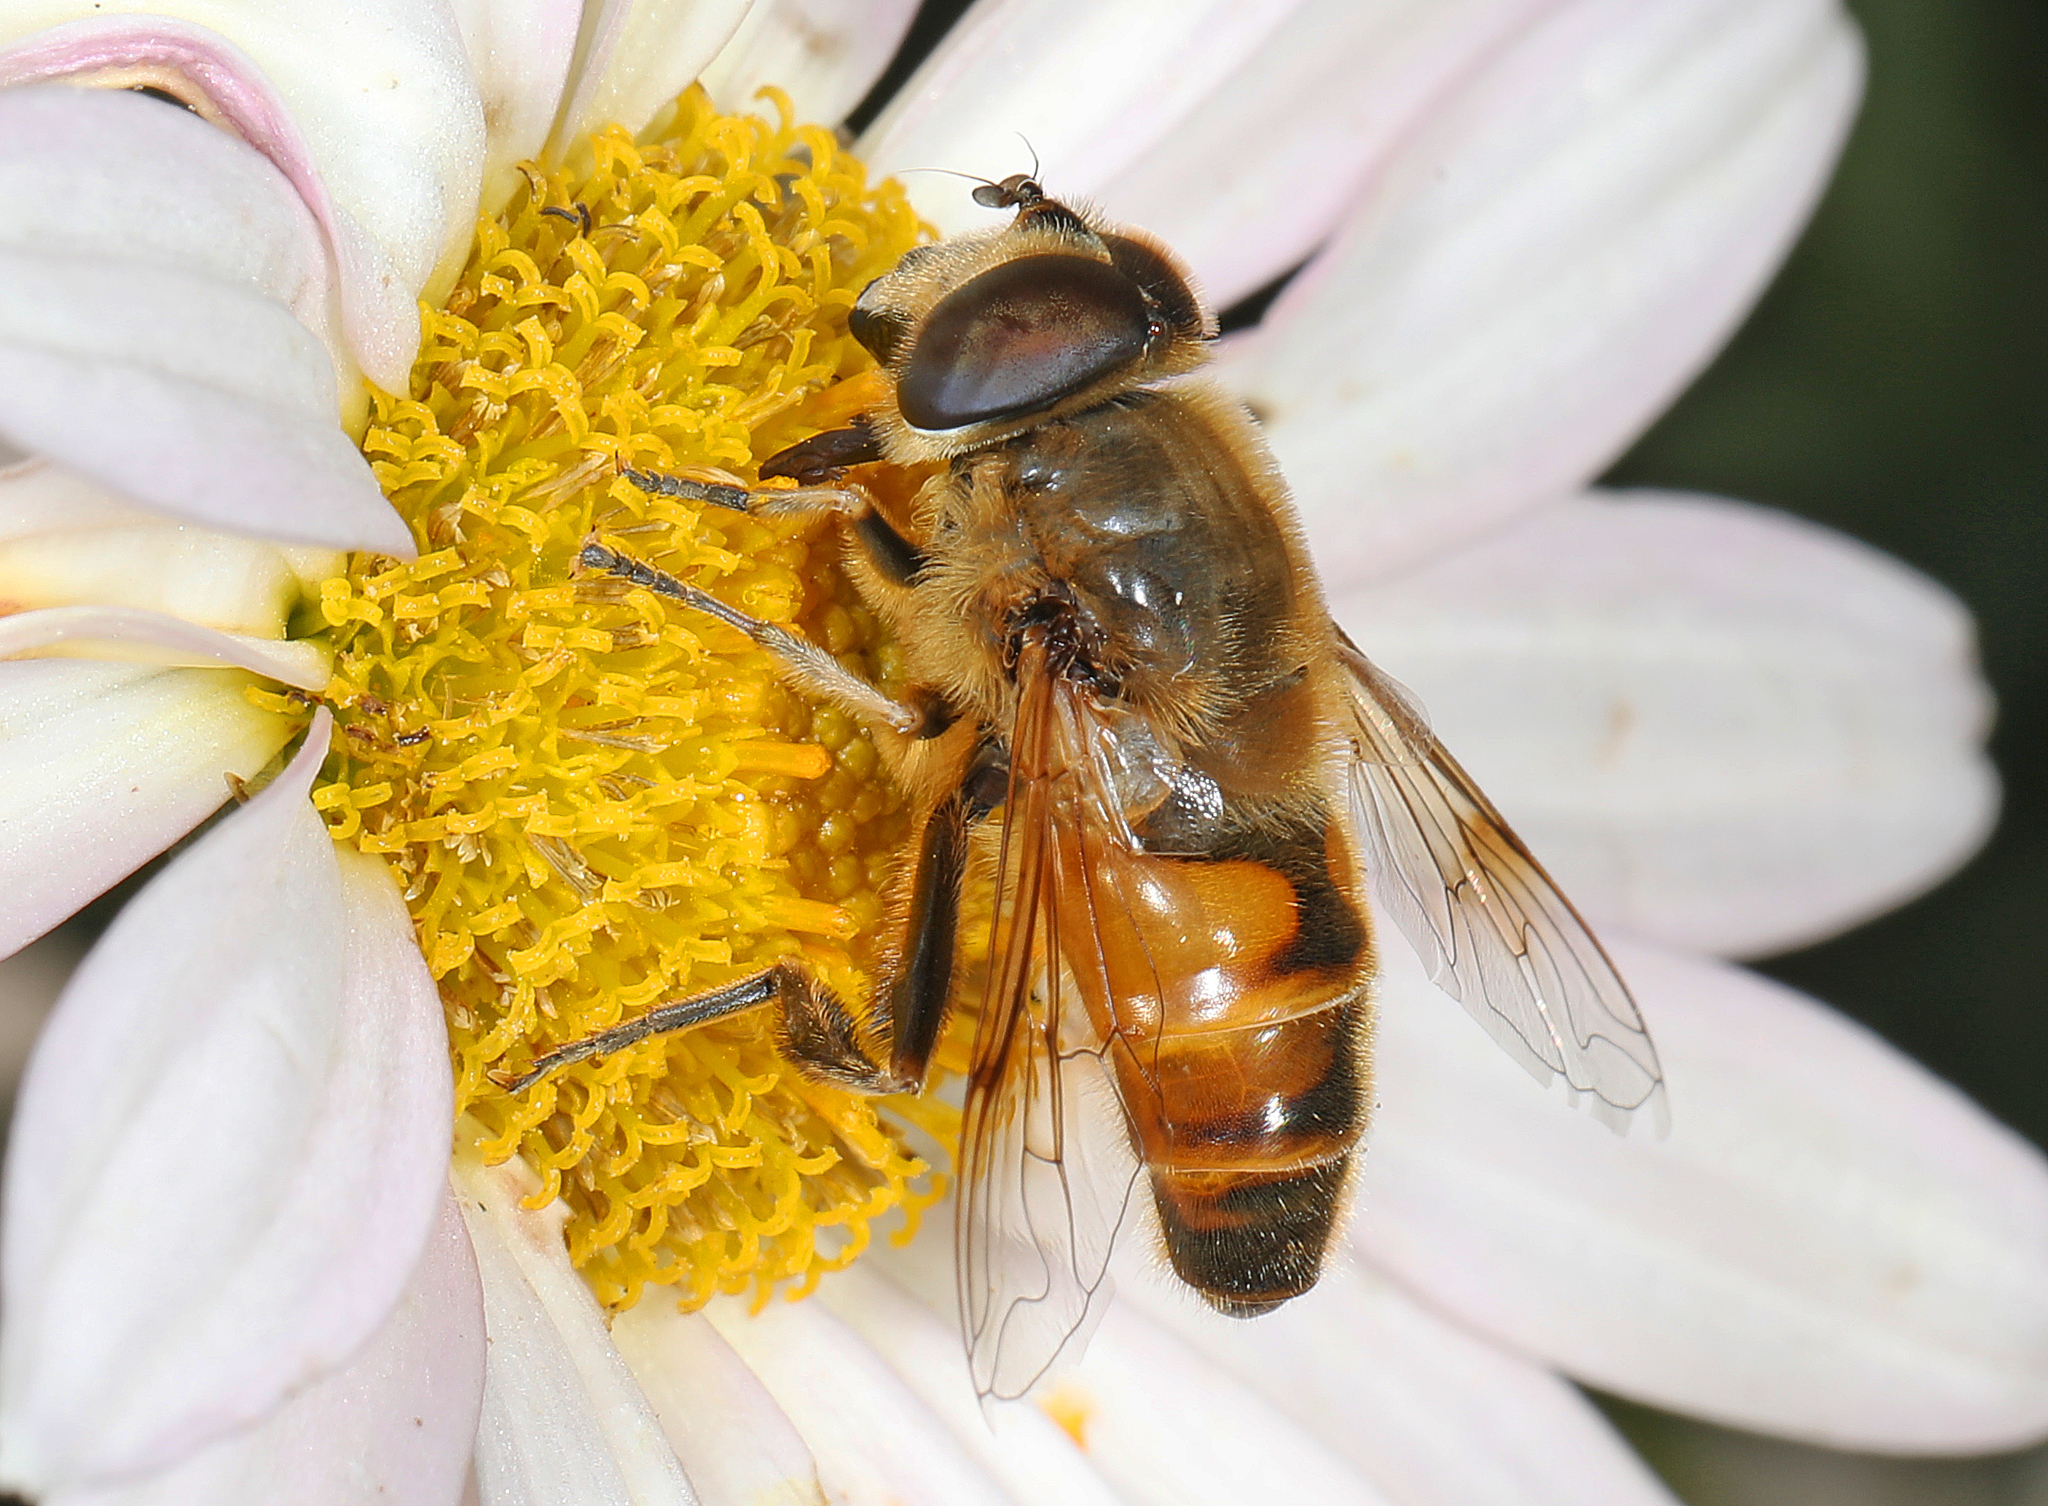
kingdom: Animalia
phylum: Arthropoda
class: Insecta
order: Diptera
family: Syrphidae
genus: Eristalis
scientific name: Eristalis tenax
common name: Drone fly
